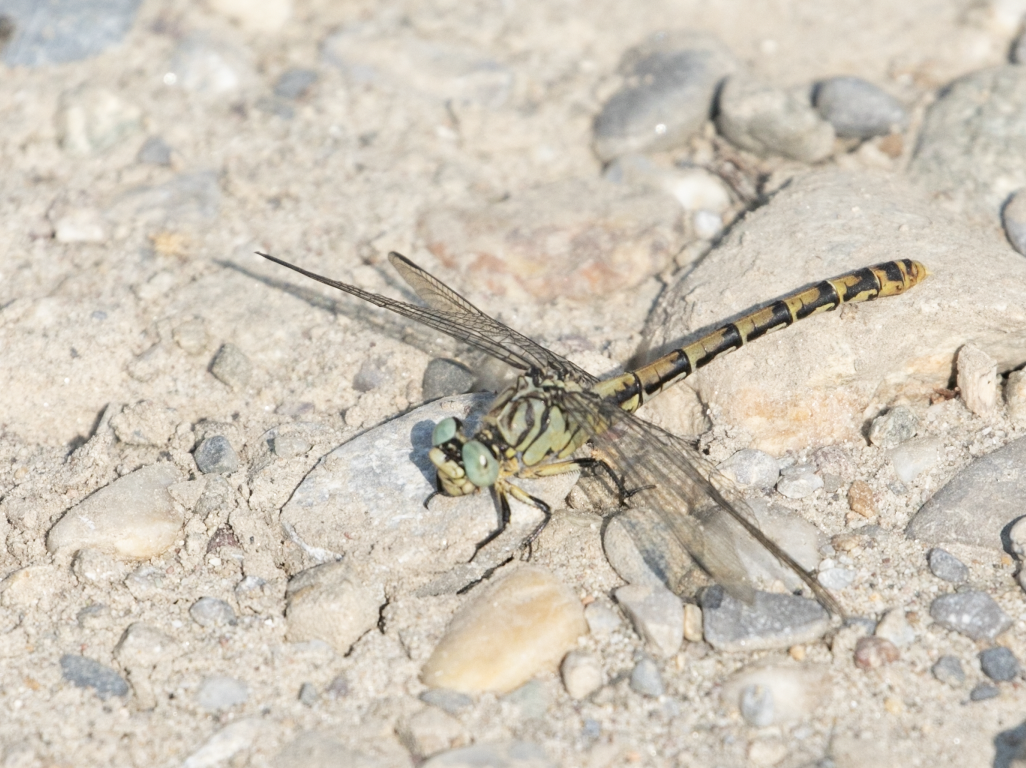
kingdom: Animalia
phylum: Arthropoda
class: Insecta
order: Odonata
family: Gomphidae
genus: Onychogomphus
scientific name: Onychogomphus forcipatus
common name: Small pincertail
